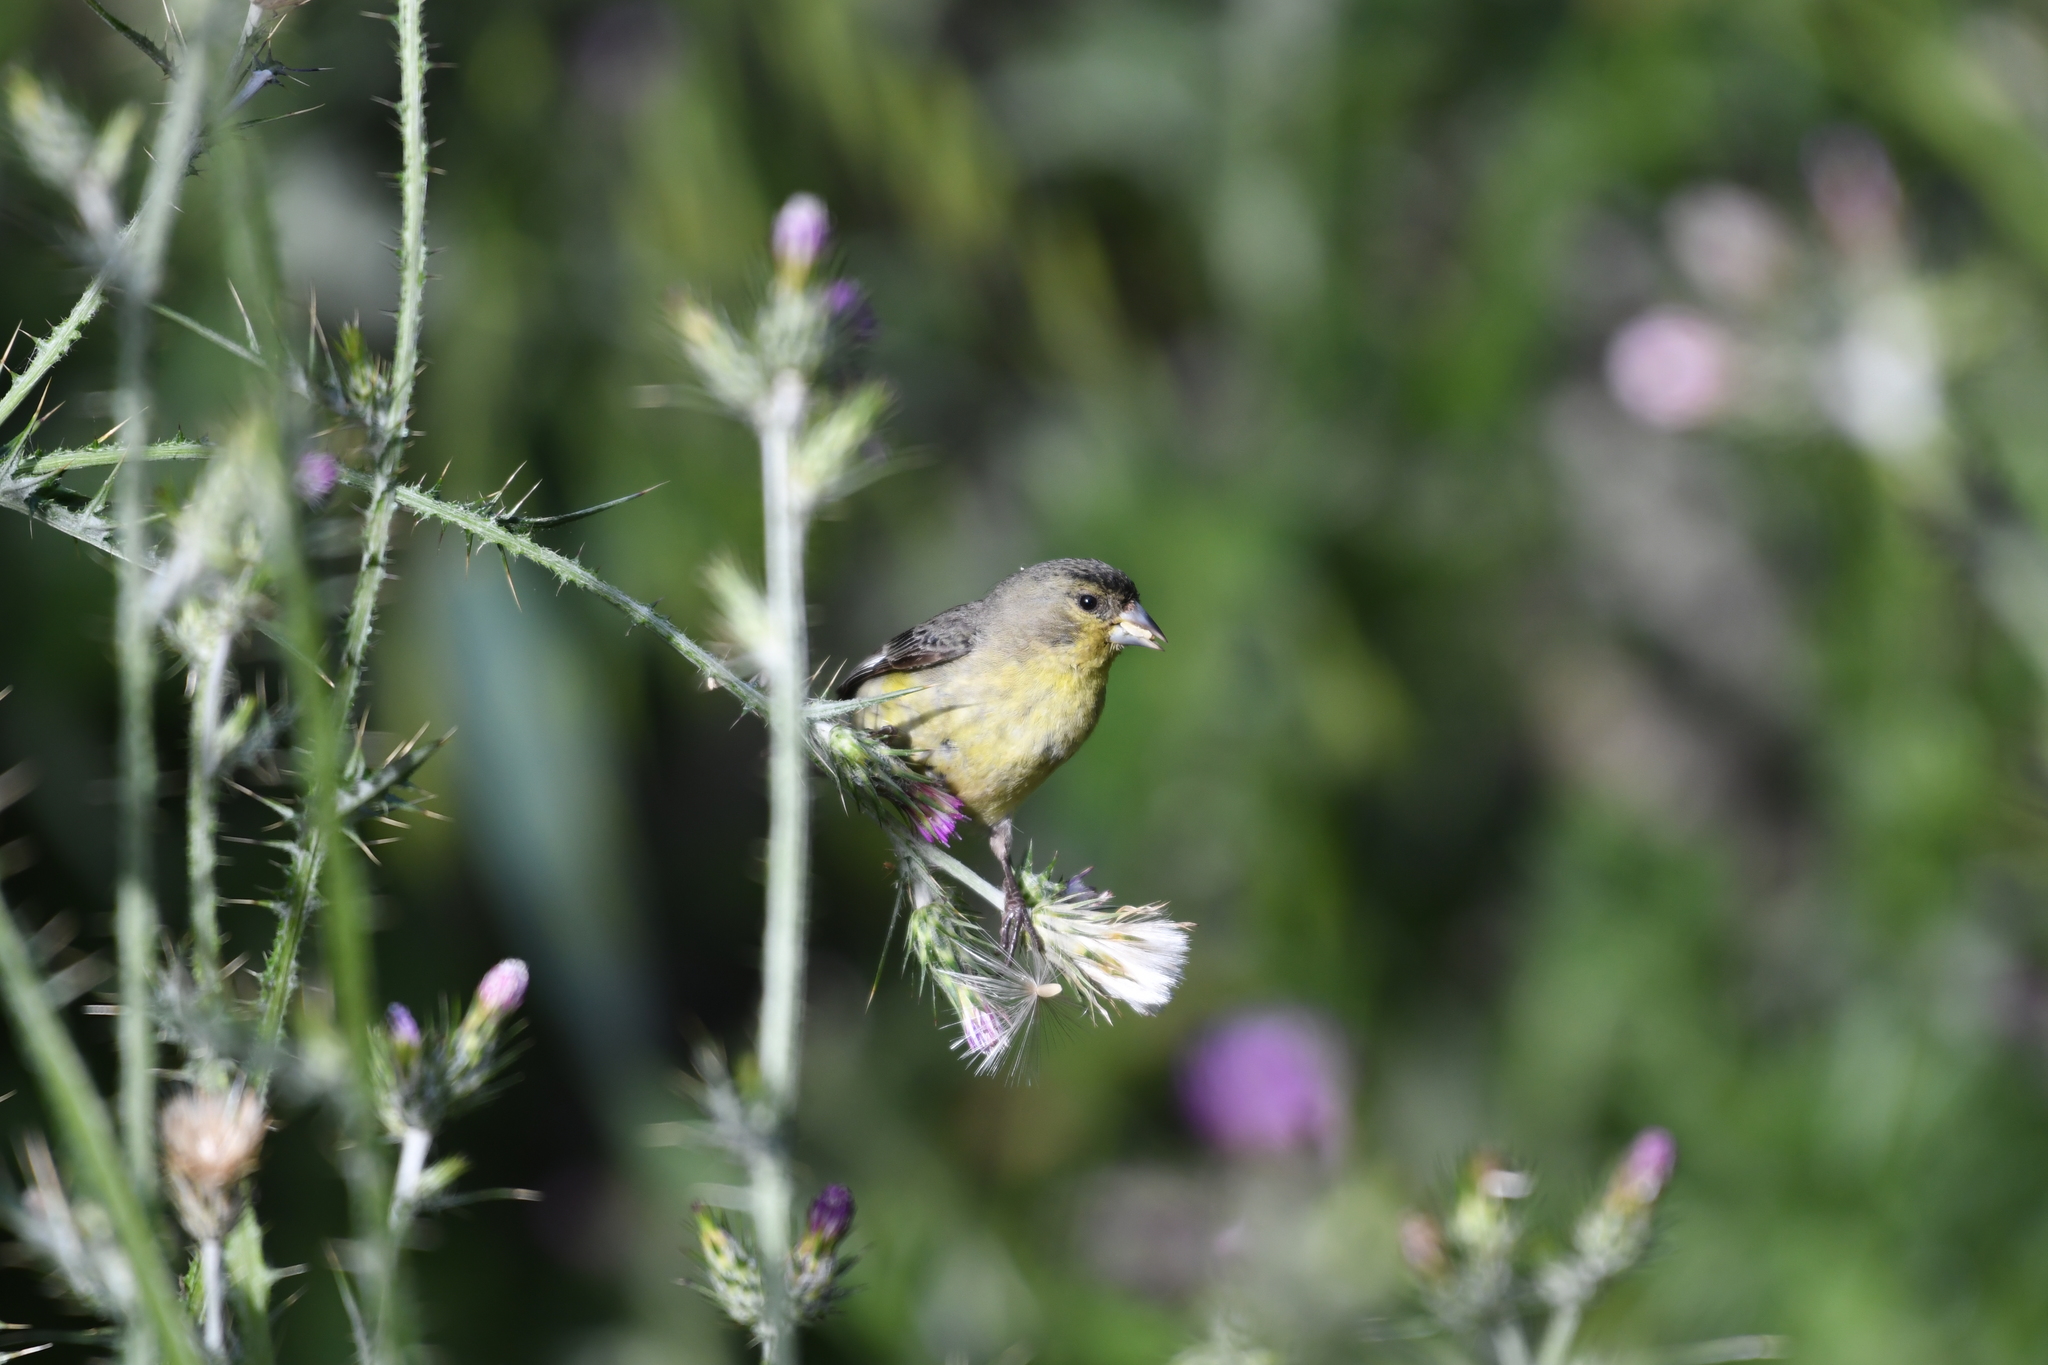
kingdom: Animalia
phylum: Chordata
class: Aves
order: Passeriformes
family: Fringillidae
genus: Spinus
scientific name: Spinus psaltria
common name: Lesser goldfinch
